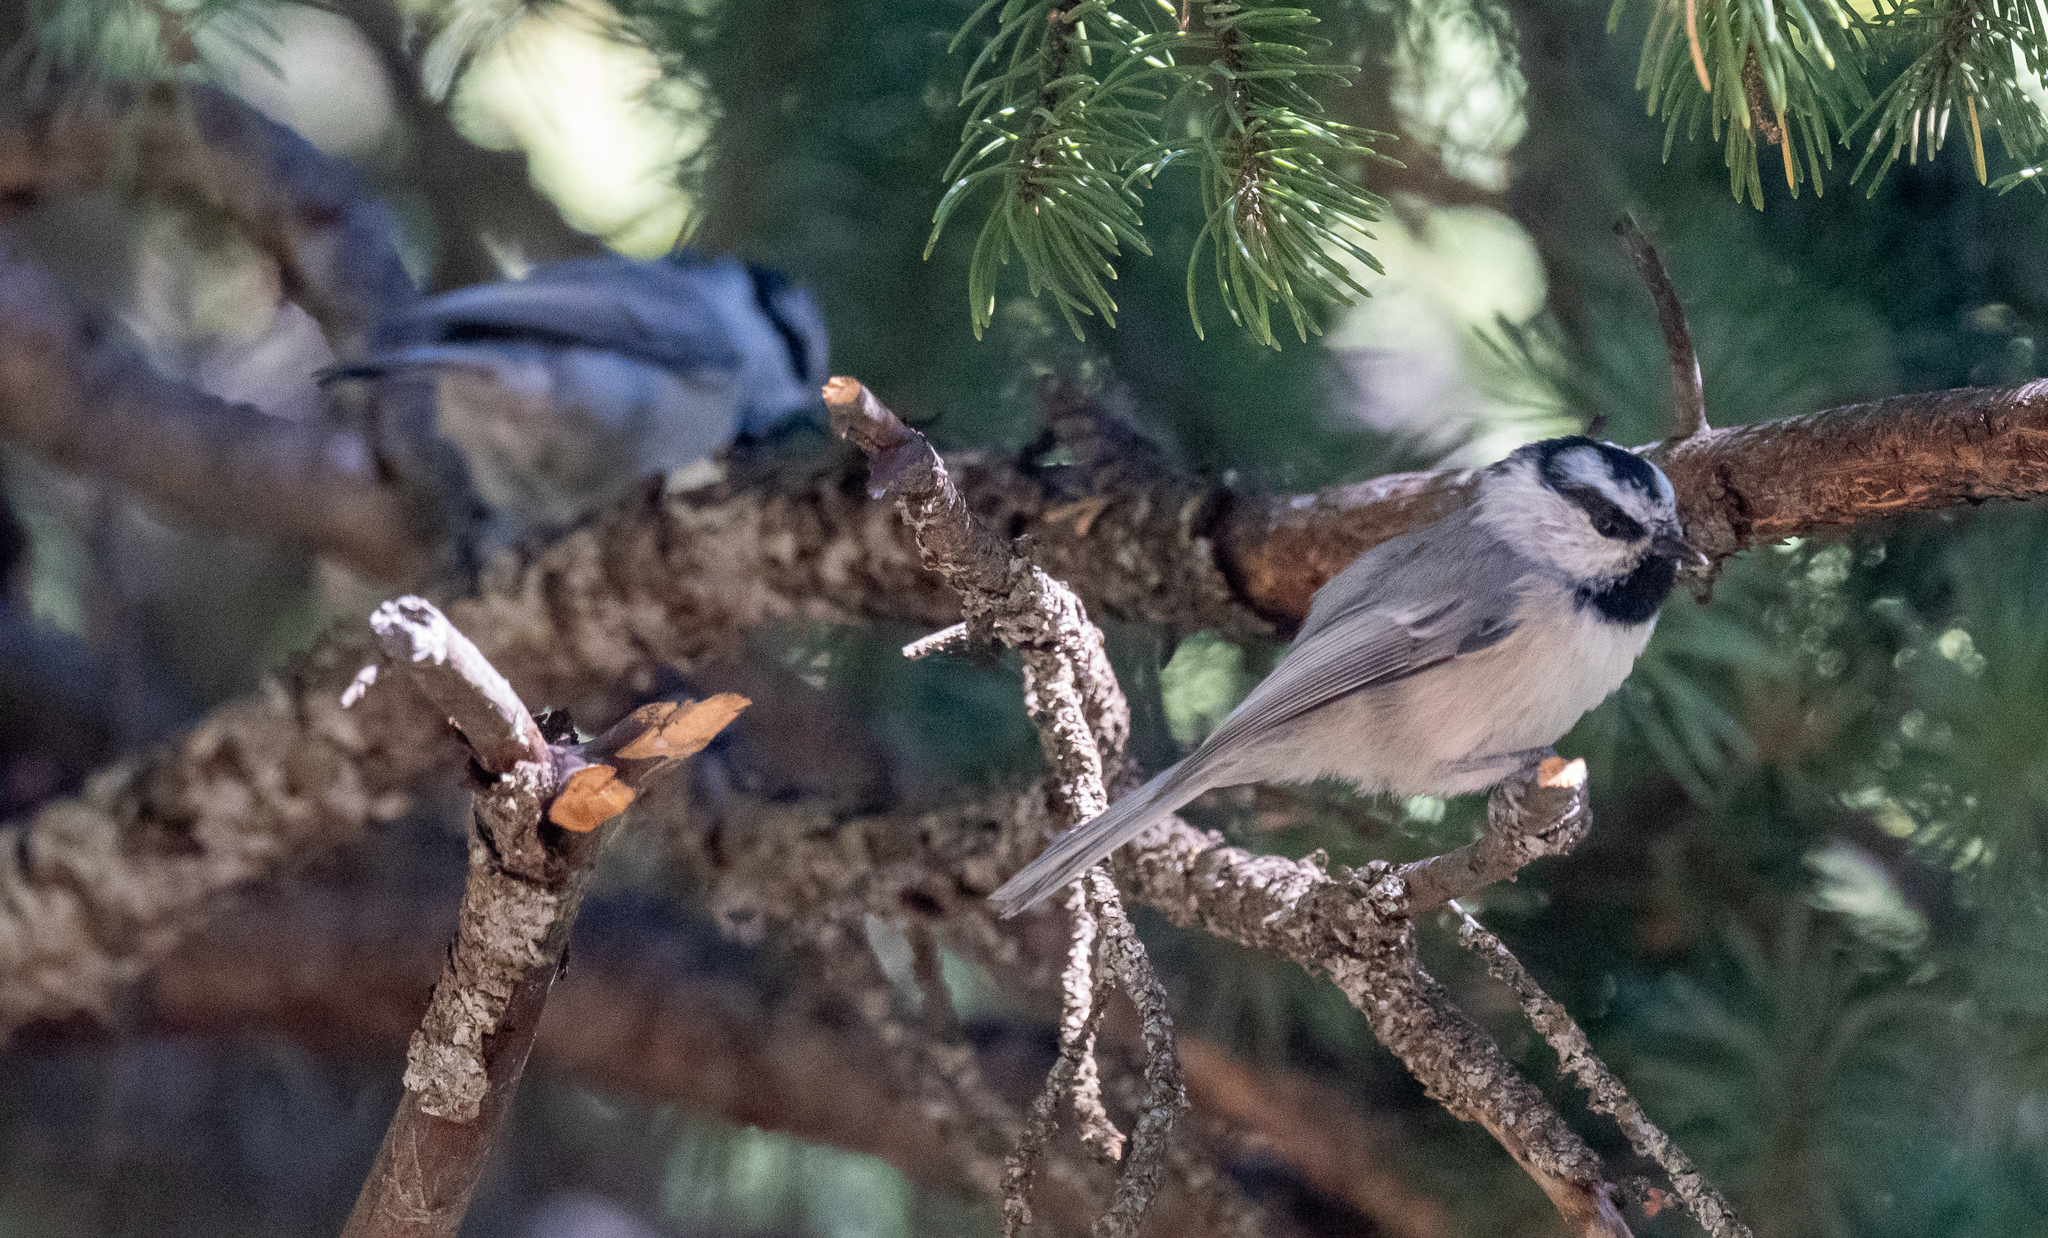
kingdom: Animalia
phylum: Chordata
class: Aves
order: Passeriformes
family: Paridae
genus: Poecile
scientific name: Poecile gambeli
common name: Mountain chickadee
